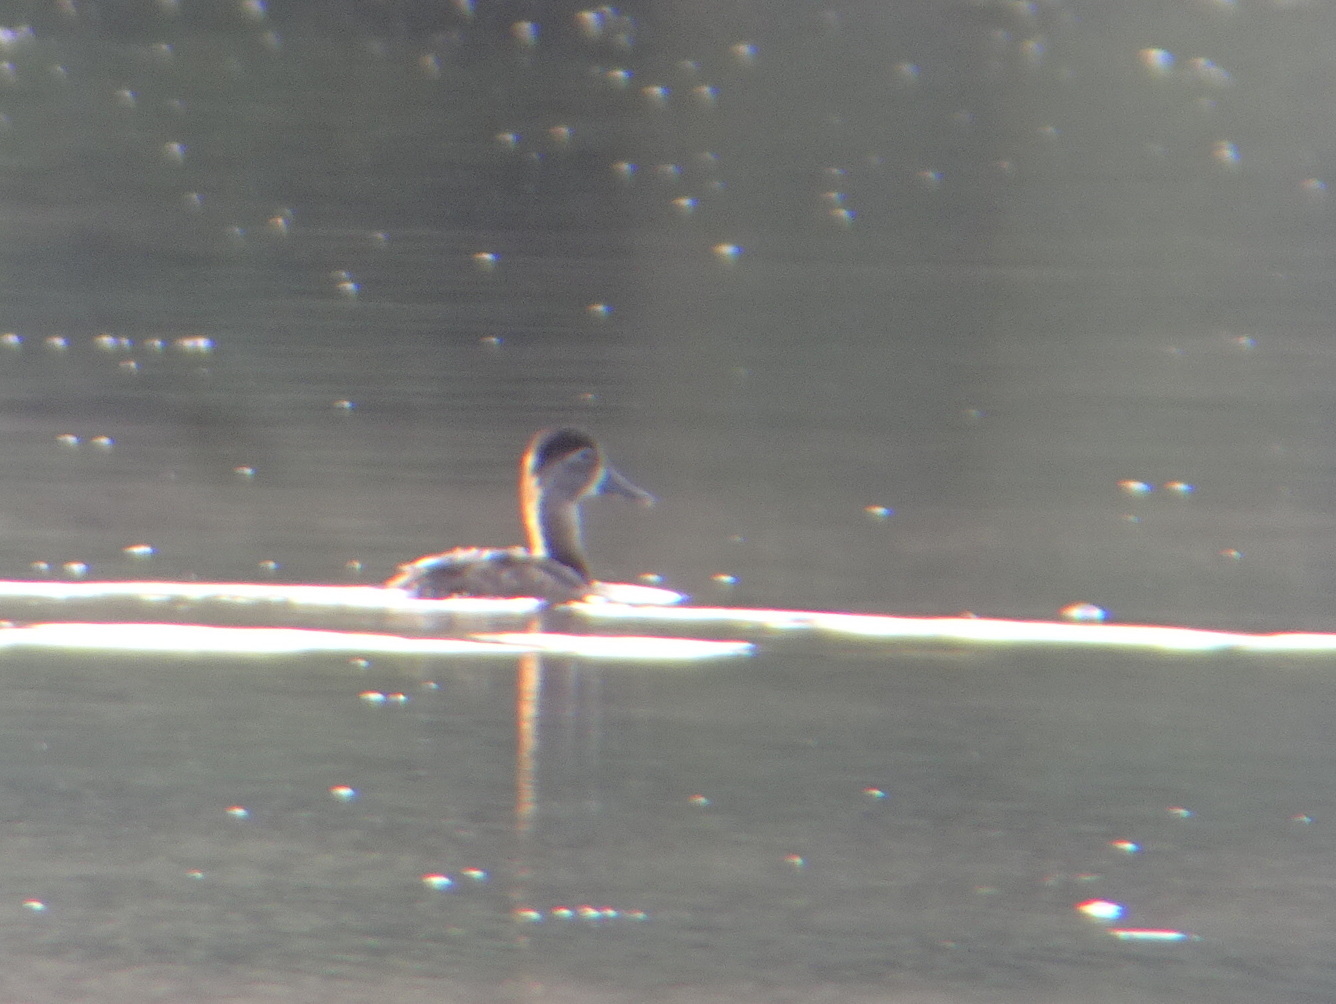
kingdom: Animalia
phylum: Chordata
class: Aves
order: Anseriformes
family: Anatidae
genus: Aythya
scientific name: Aythya collaris
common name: Ring-necked duck
